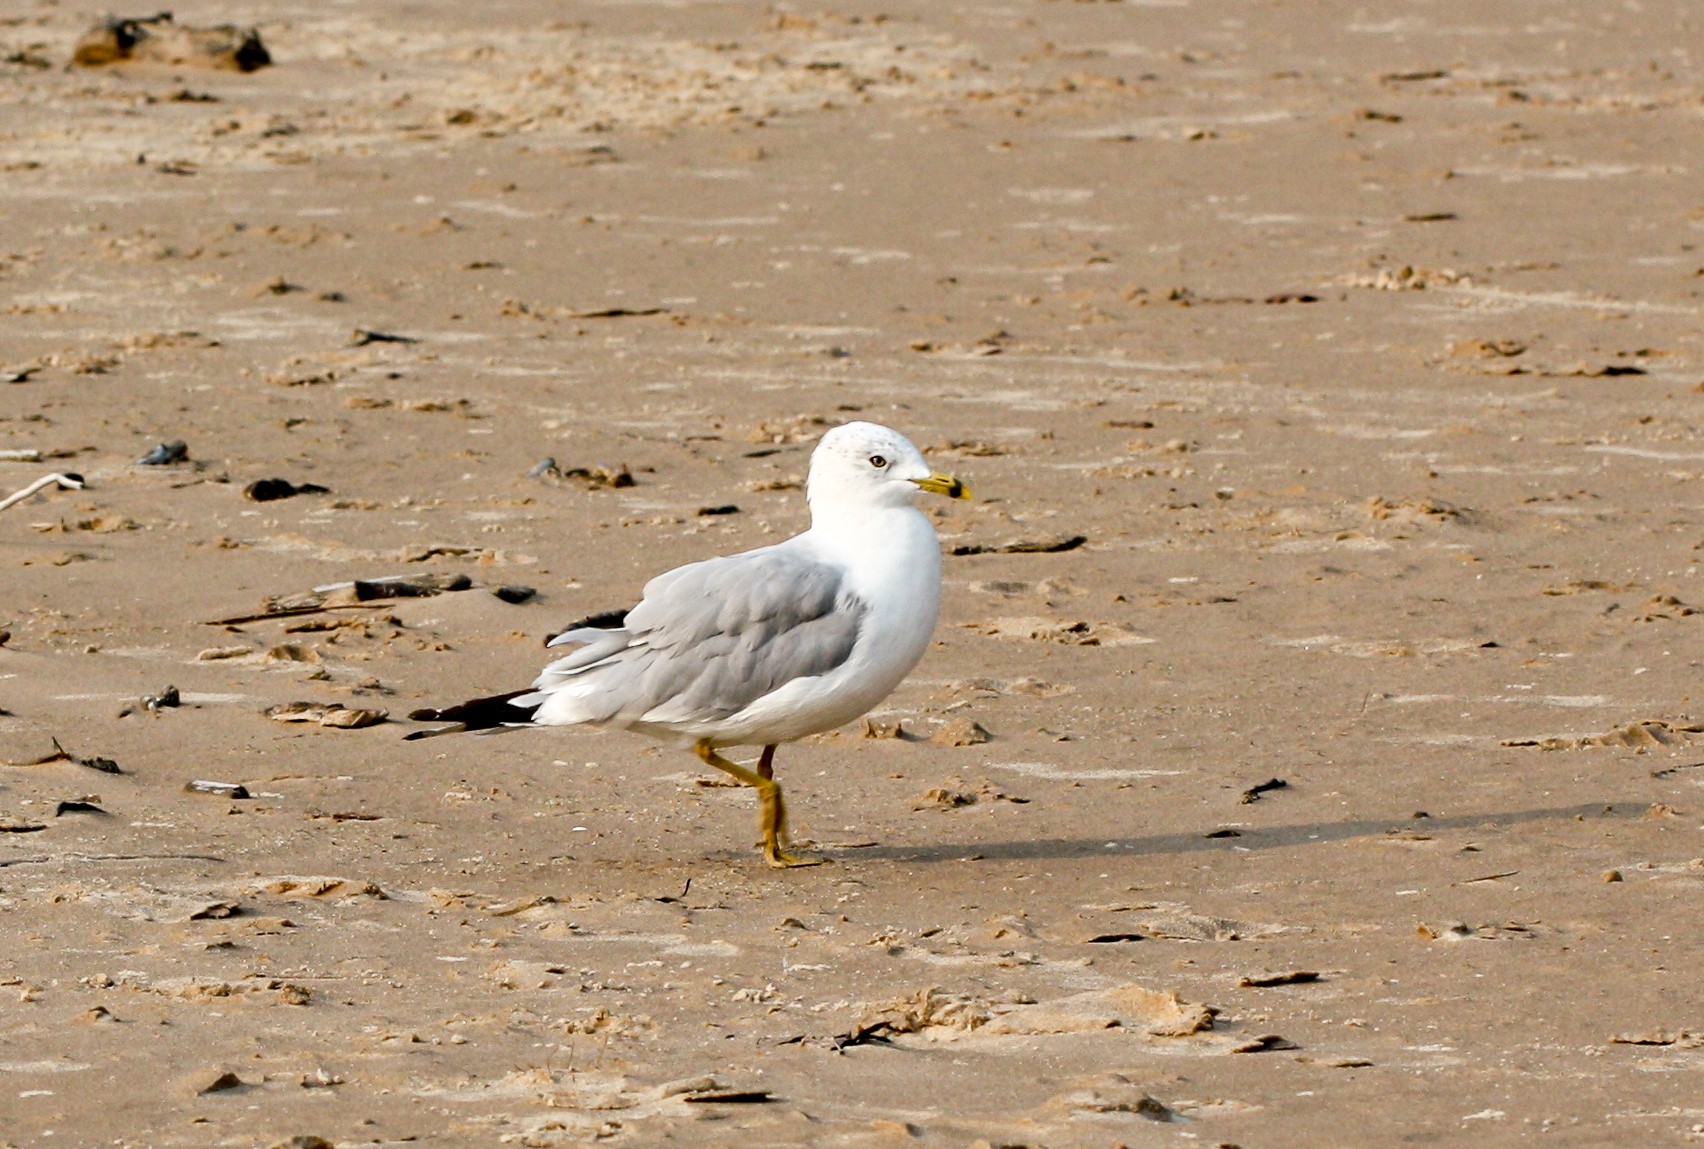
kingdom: Animalia
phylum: Chordata
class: Aves
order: Charadriiformes
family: Laridae
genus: Larus
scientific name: Larus delawarensis
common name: Ring-billed gull
